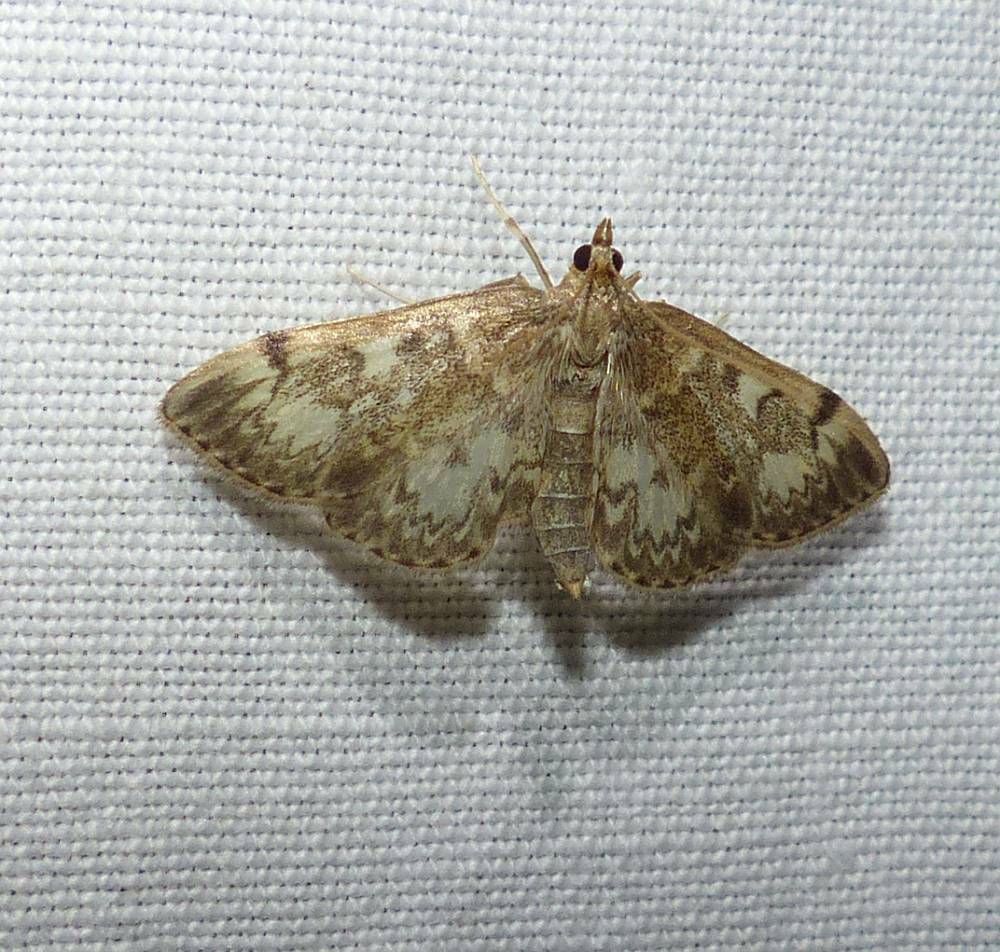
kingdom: Animalia
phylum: Arthropoda
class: Insecta
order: Lepidoptera
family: Crambidae
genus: Anania
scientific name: Anania
